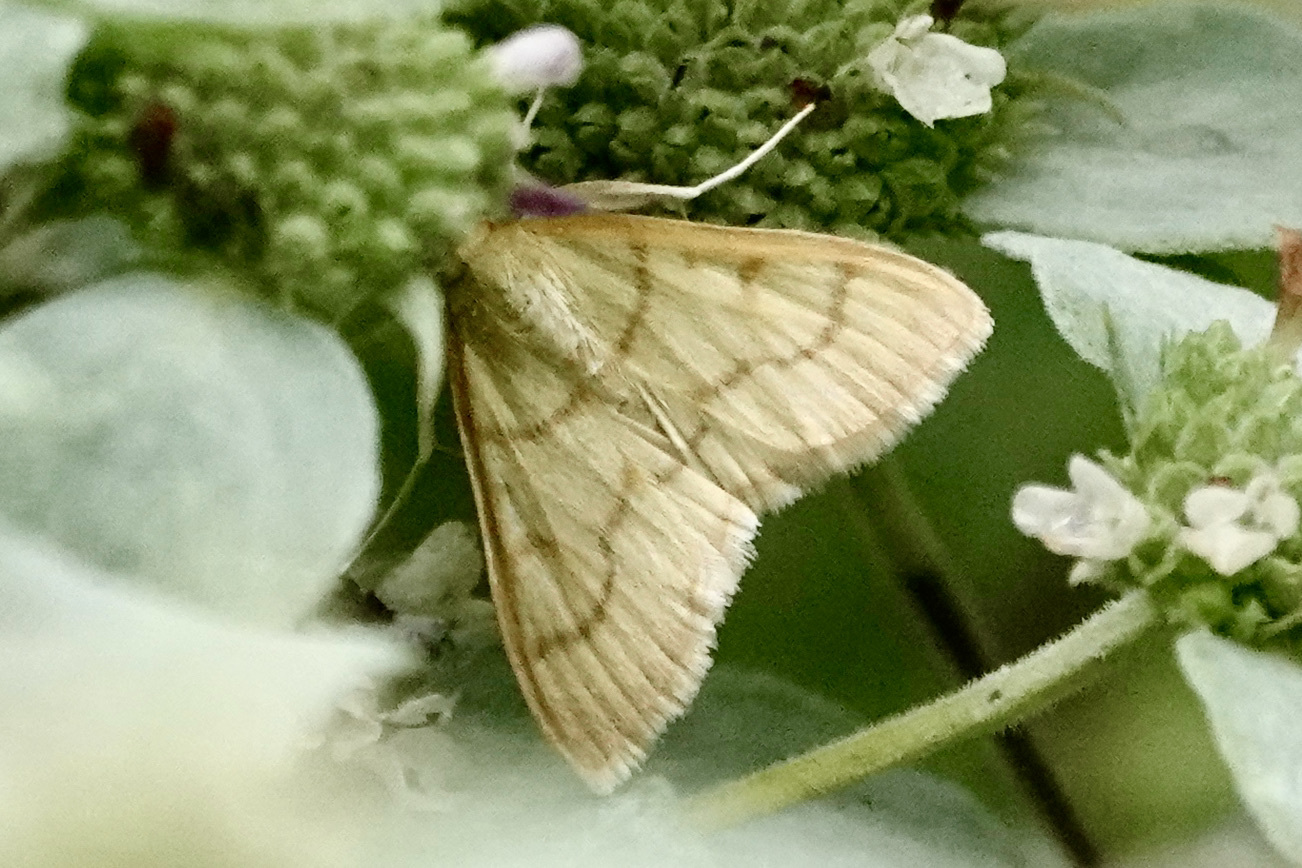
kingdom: Animalia
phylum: Arthropoda
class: Insecta
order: Lepidoptera
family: Crambidae
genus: Neohelvibotys
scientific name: Neohelvibotys neohelvialis
